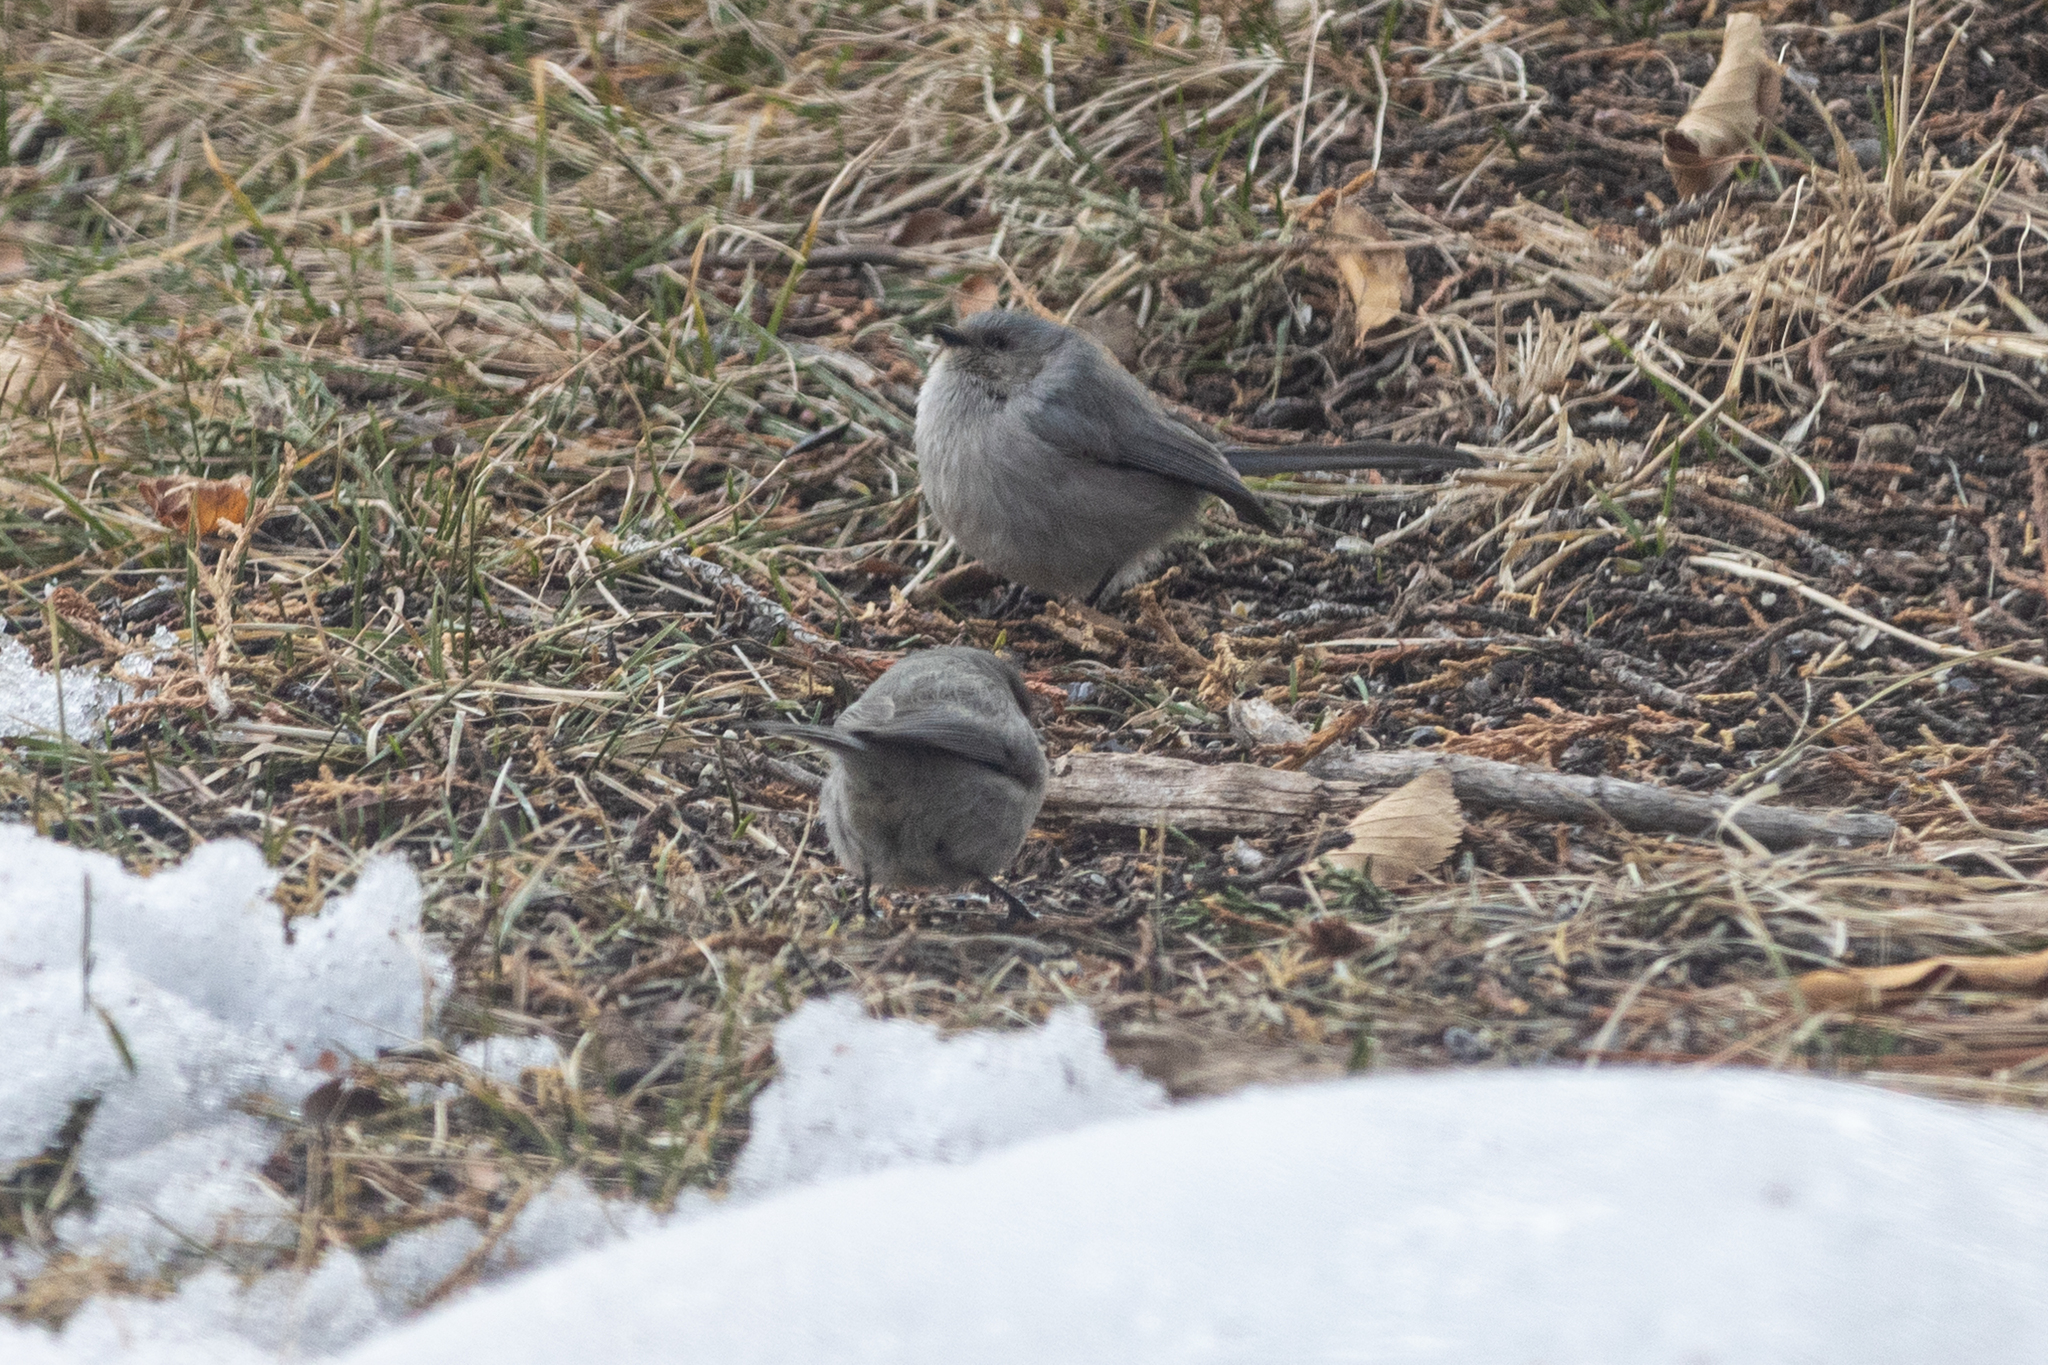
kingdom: Animalia
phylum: Chordata
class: Aves
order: Passeriformes
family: Aegithalidae
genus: Psaltriparus
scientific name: Psaltriparus minimus
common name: American bushtit
